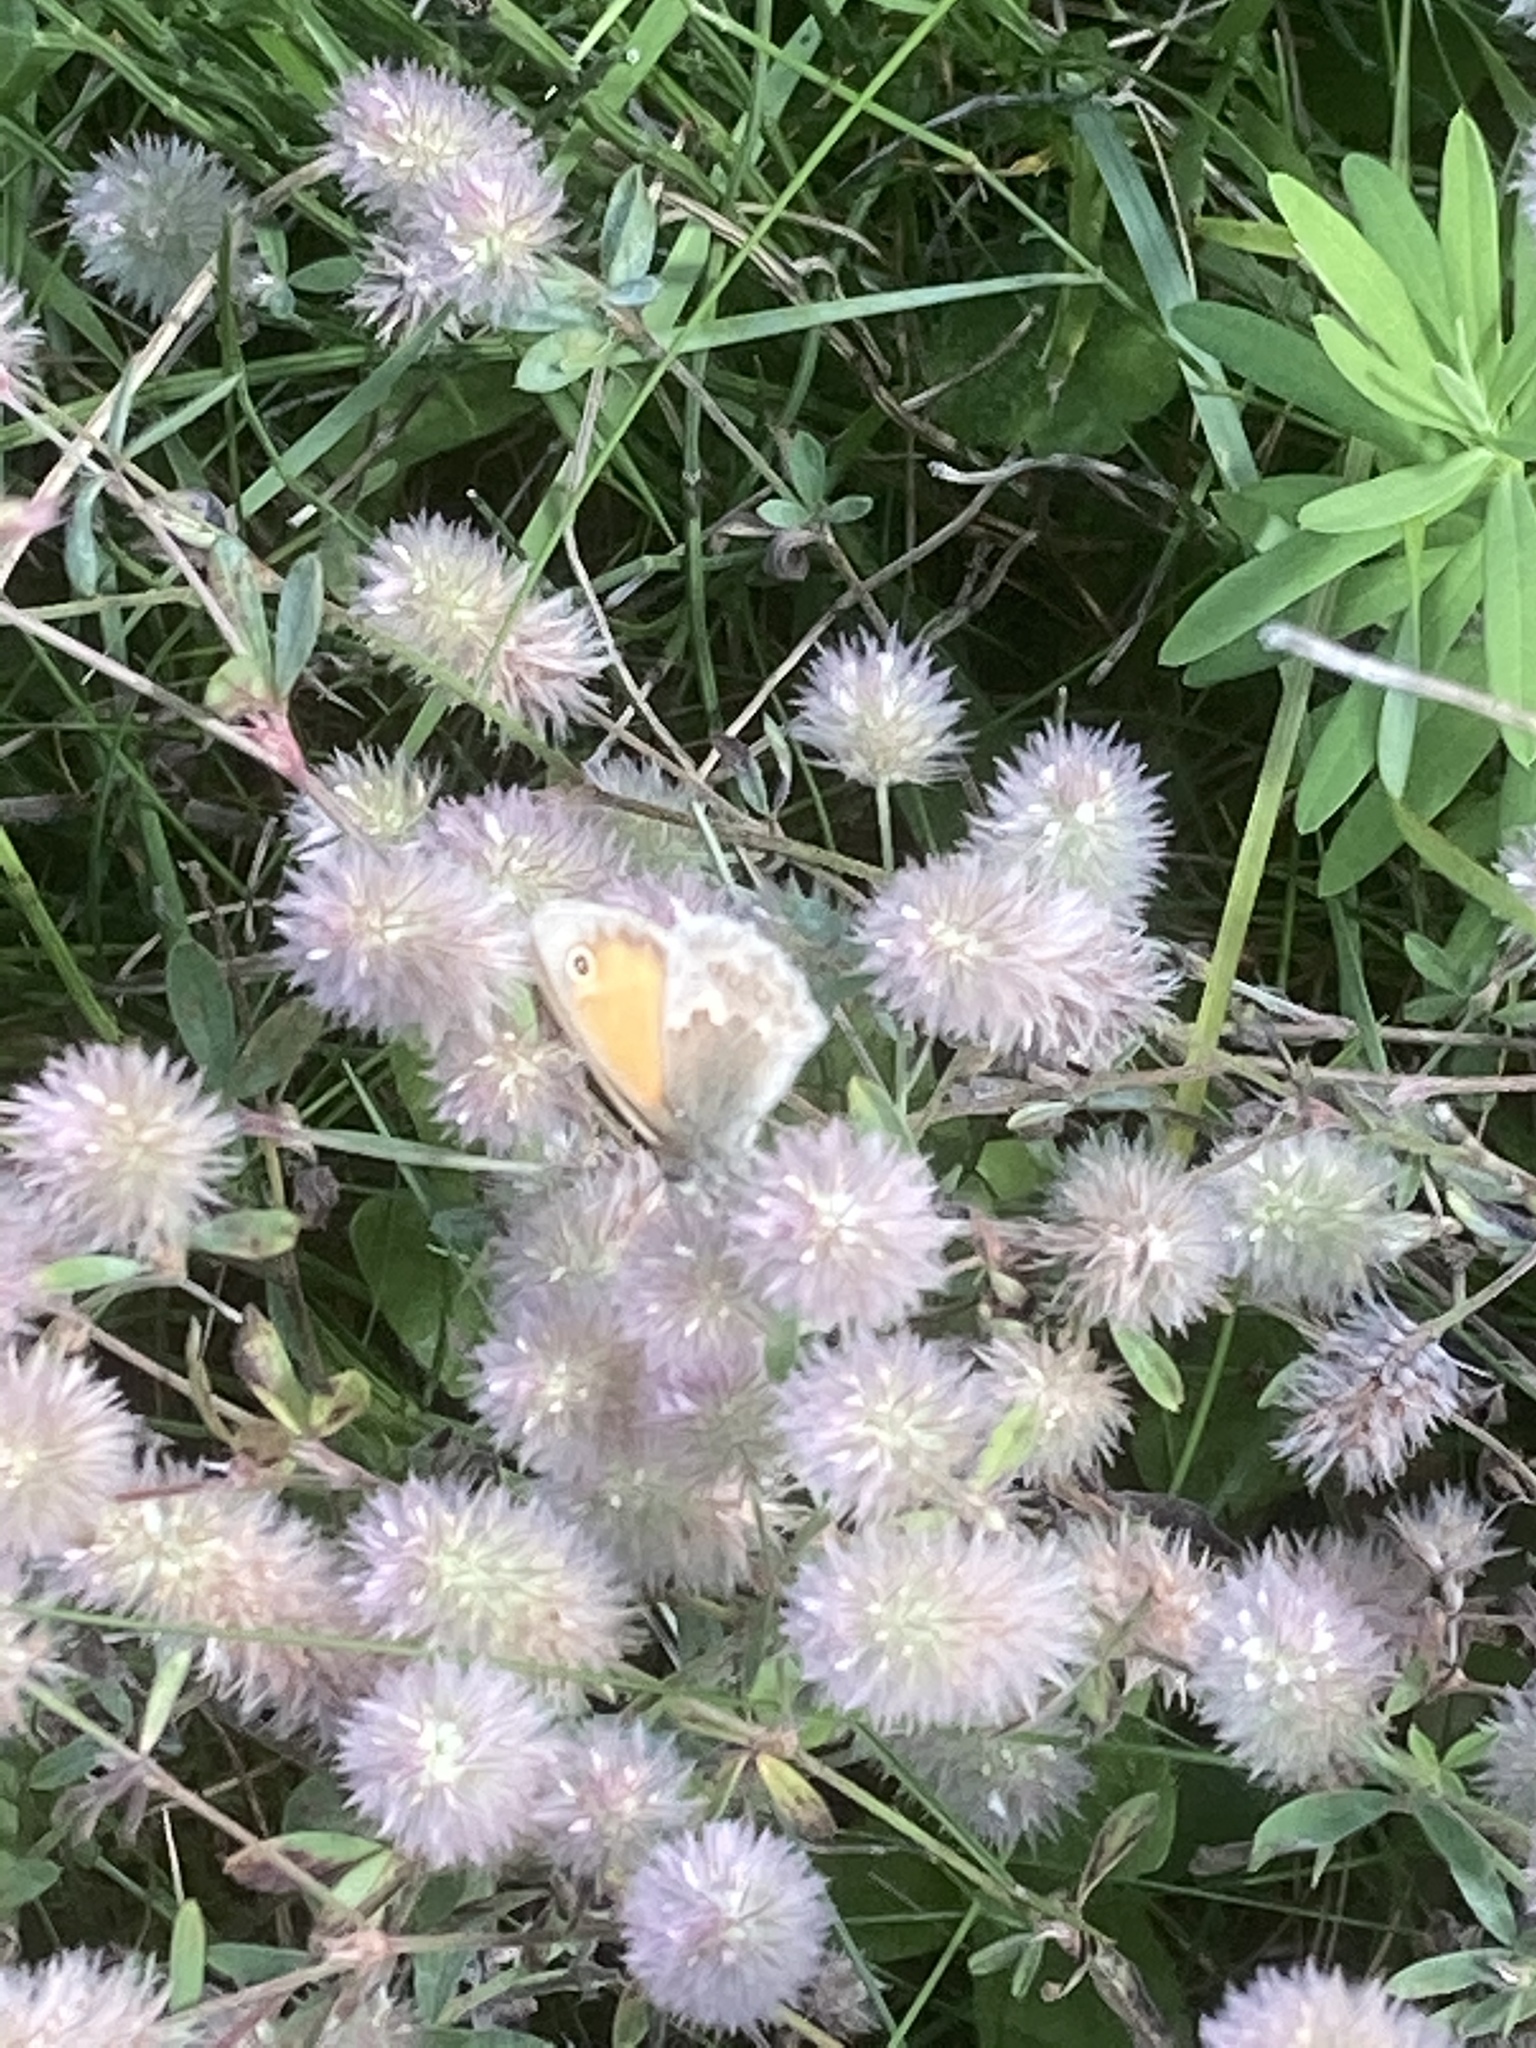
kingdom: Animalia
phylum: Arthropoda
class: Insecta
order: Lepidoptera
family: Nymphalidae
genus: Coenonympha
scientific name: Coenonympha pamphilus
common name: Small heath
